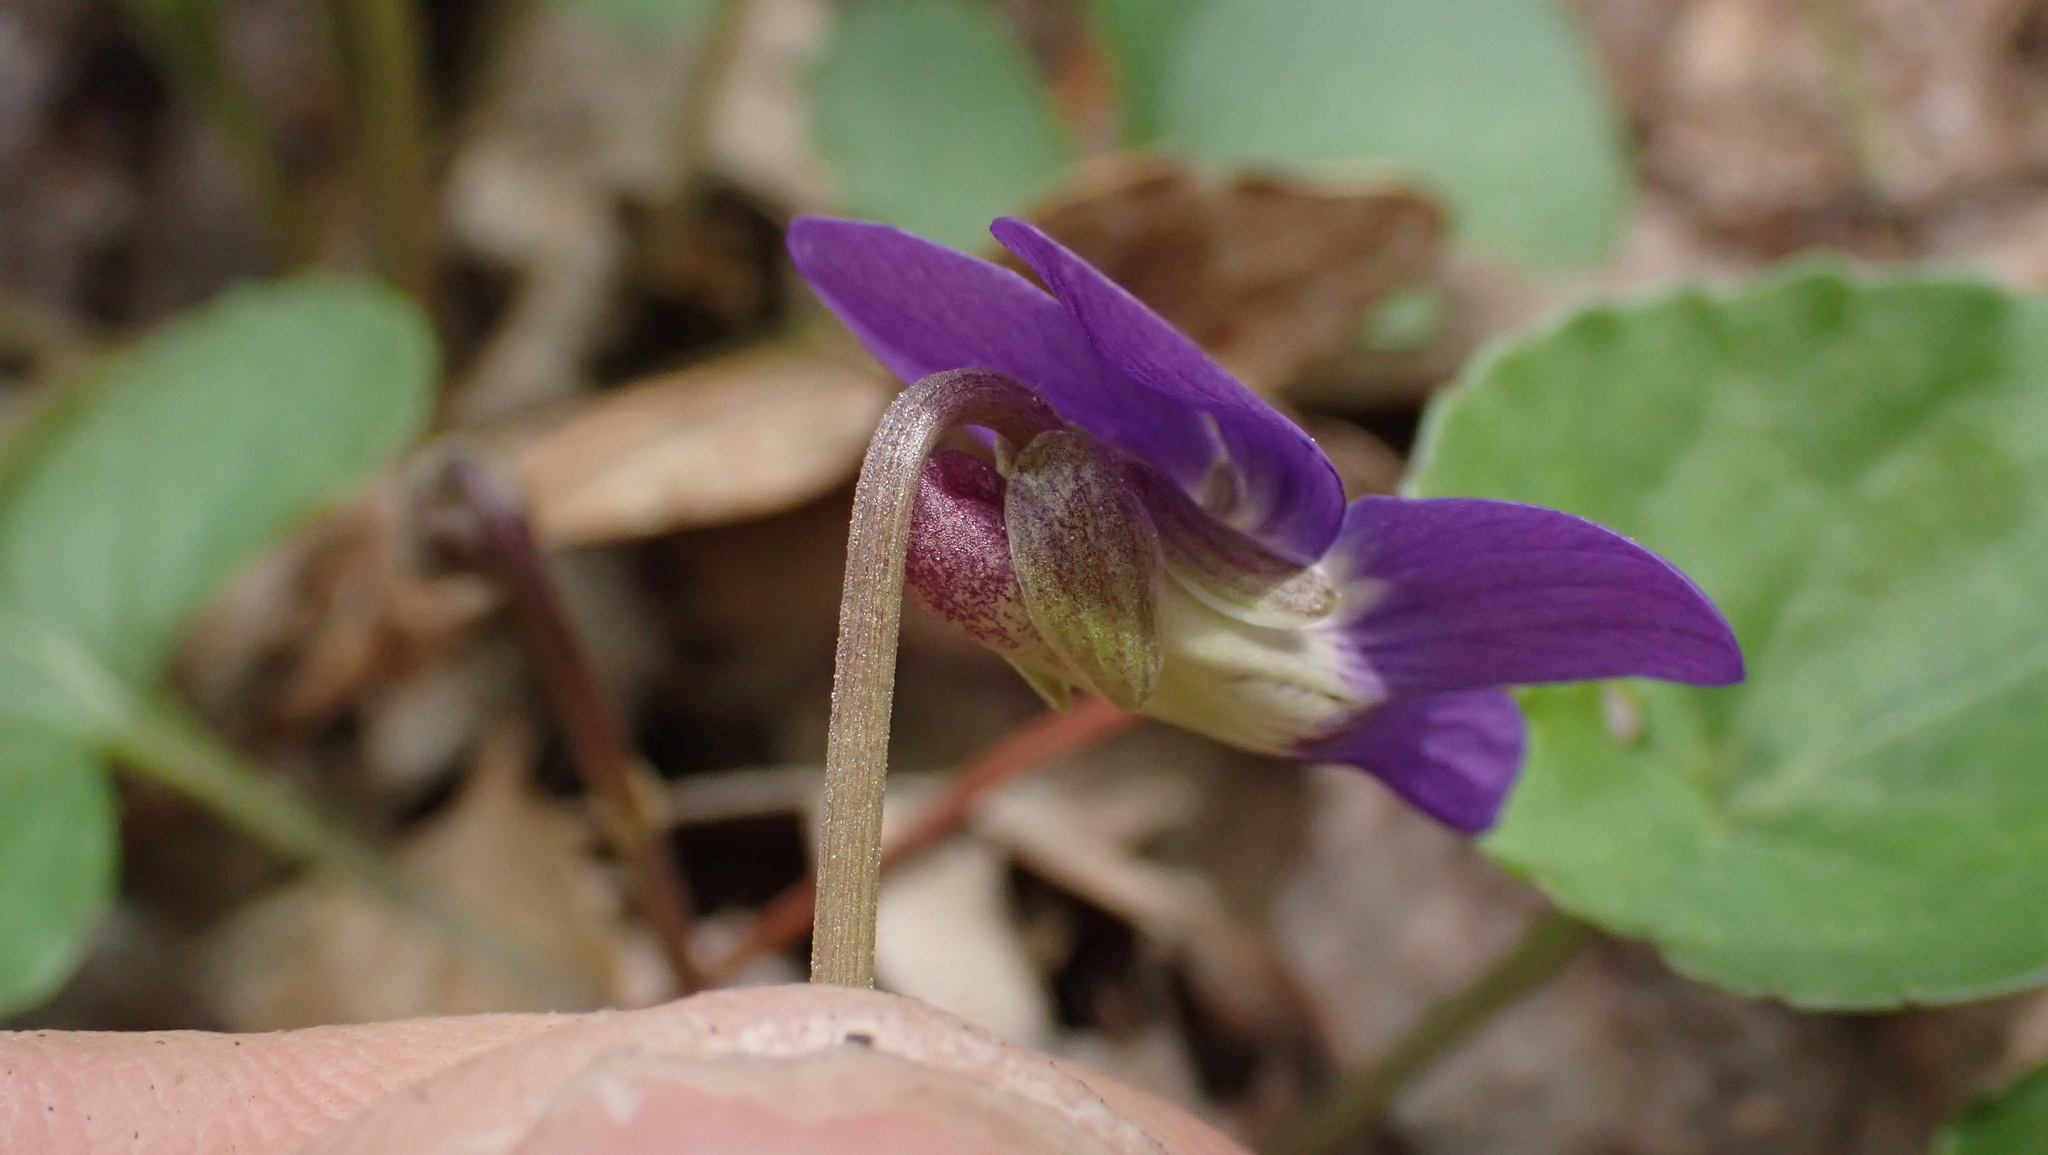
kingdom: Plantae
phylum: Tracheophyta
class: Magnoliopsida
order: Malpighiales
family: Violaceae
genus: Viola
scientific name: Viola sororia
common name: Dooryard violet
